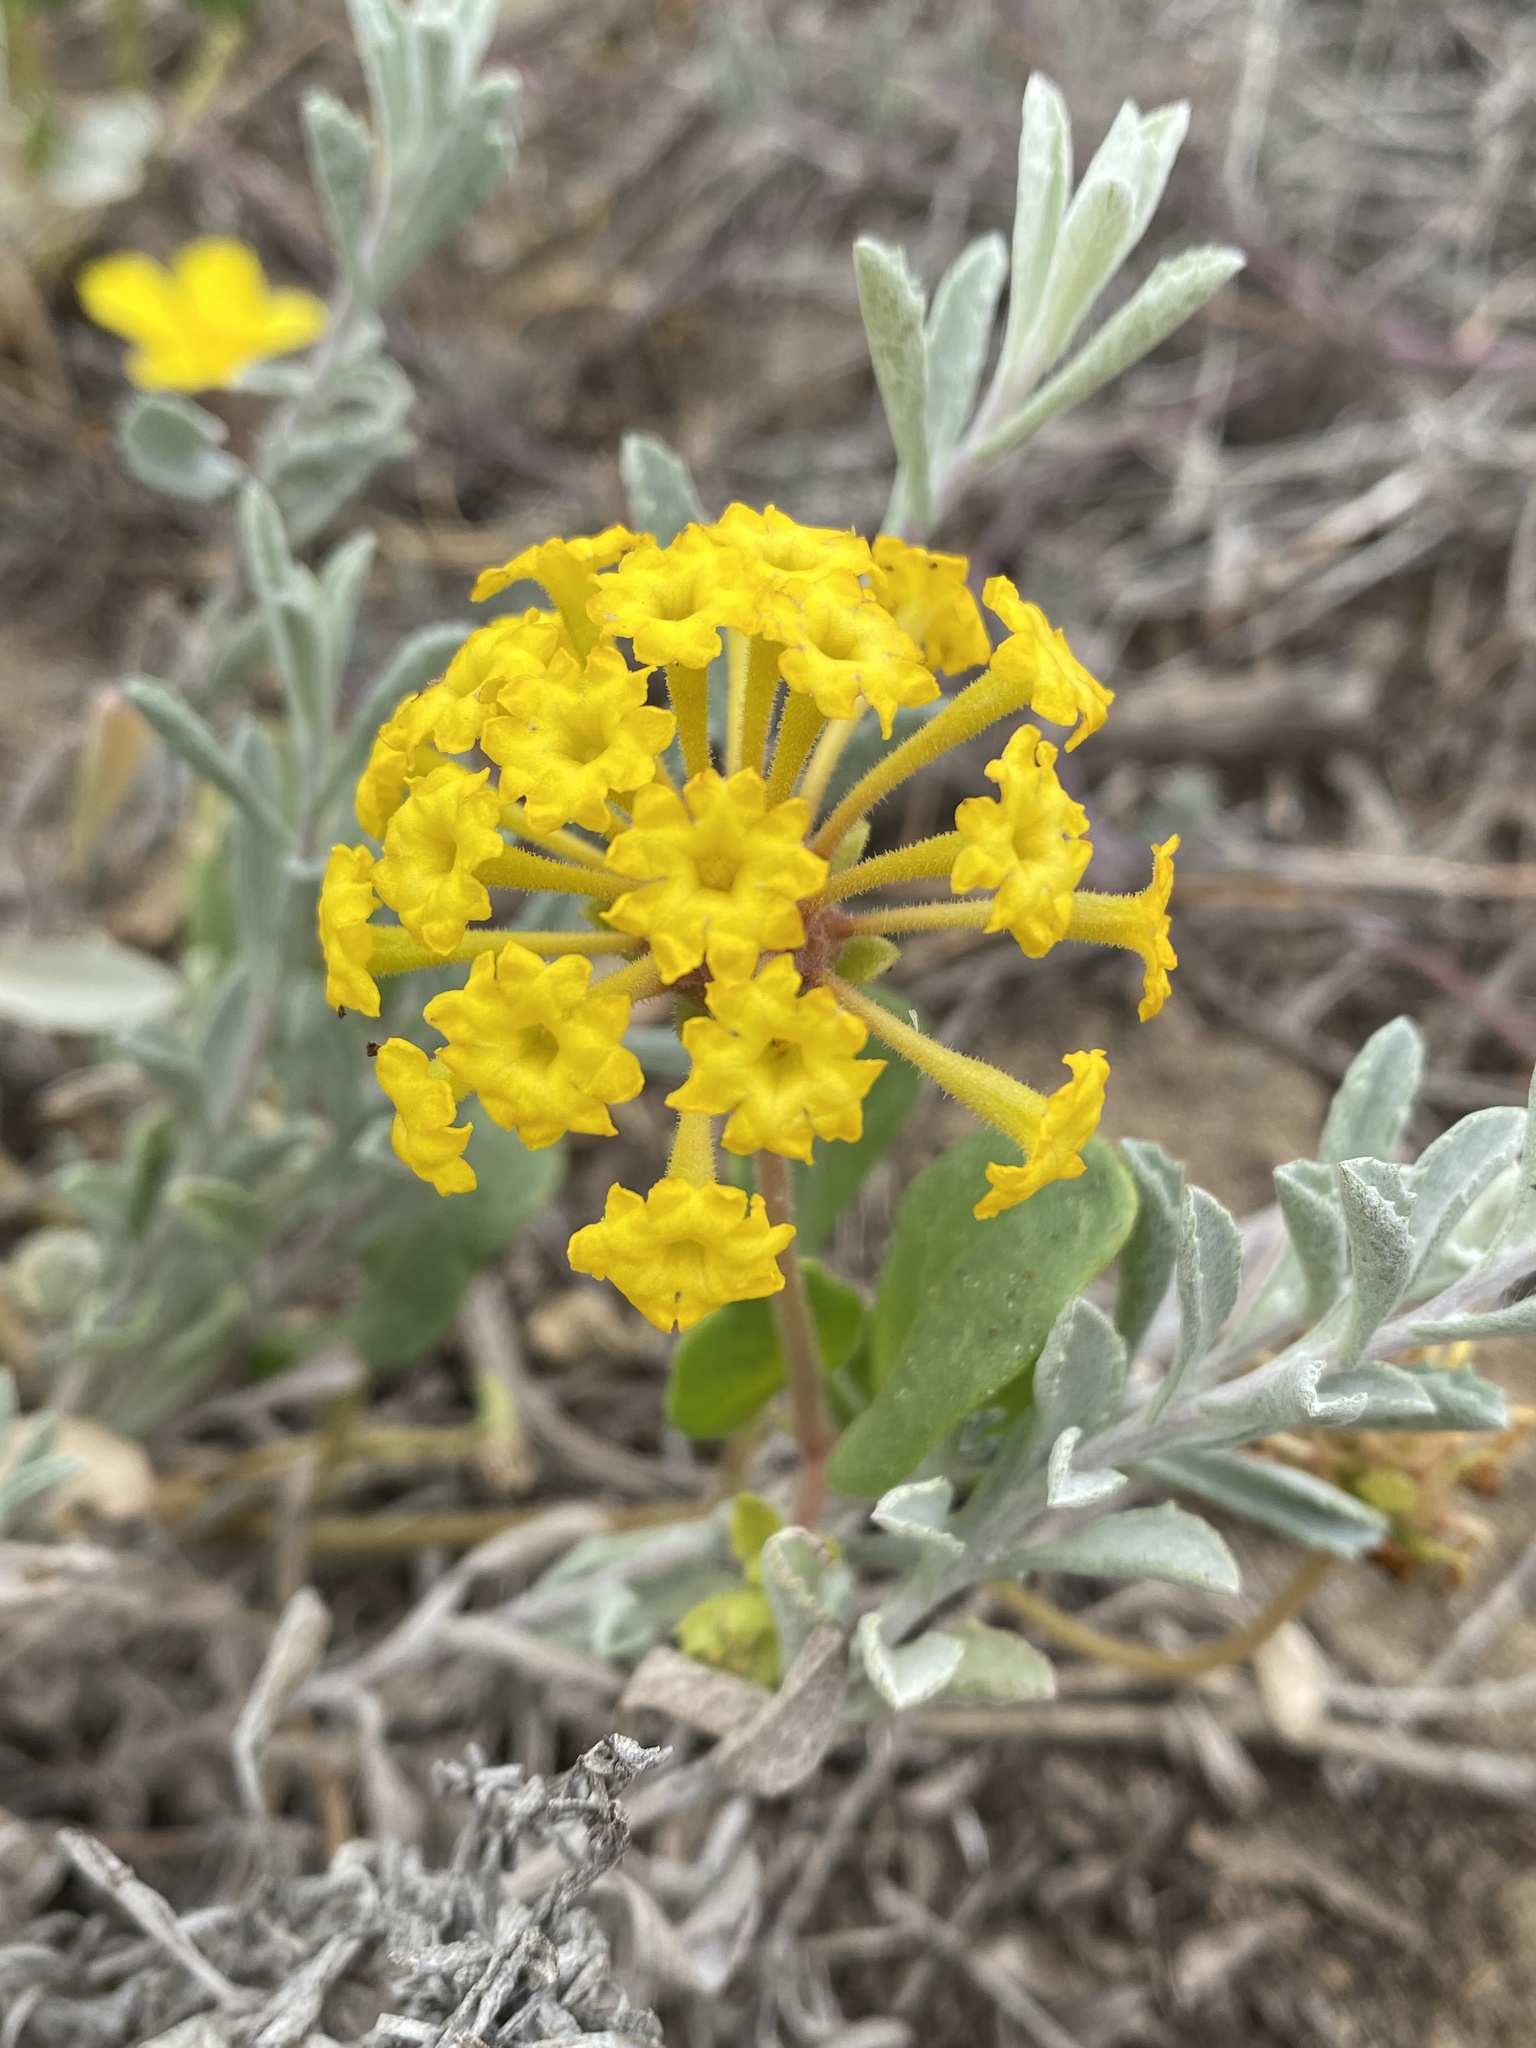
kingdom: Plantae
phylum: Tracheophyta
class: Magnoliopsida
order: Caryophyllales
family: Nyctaginaceae
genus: Abronia
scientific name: Abronia latifolia
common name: Yellow sand-verbena
